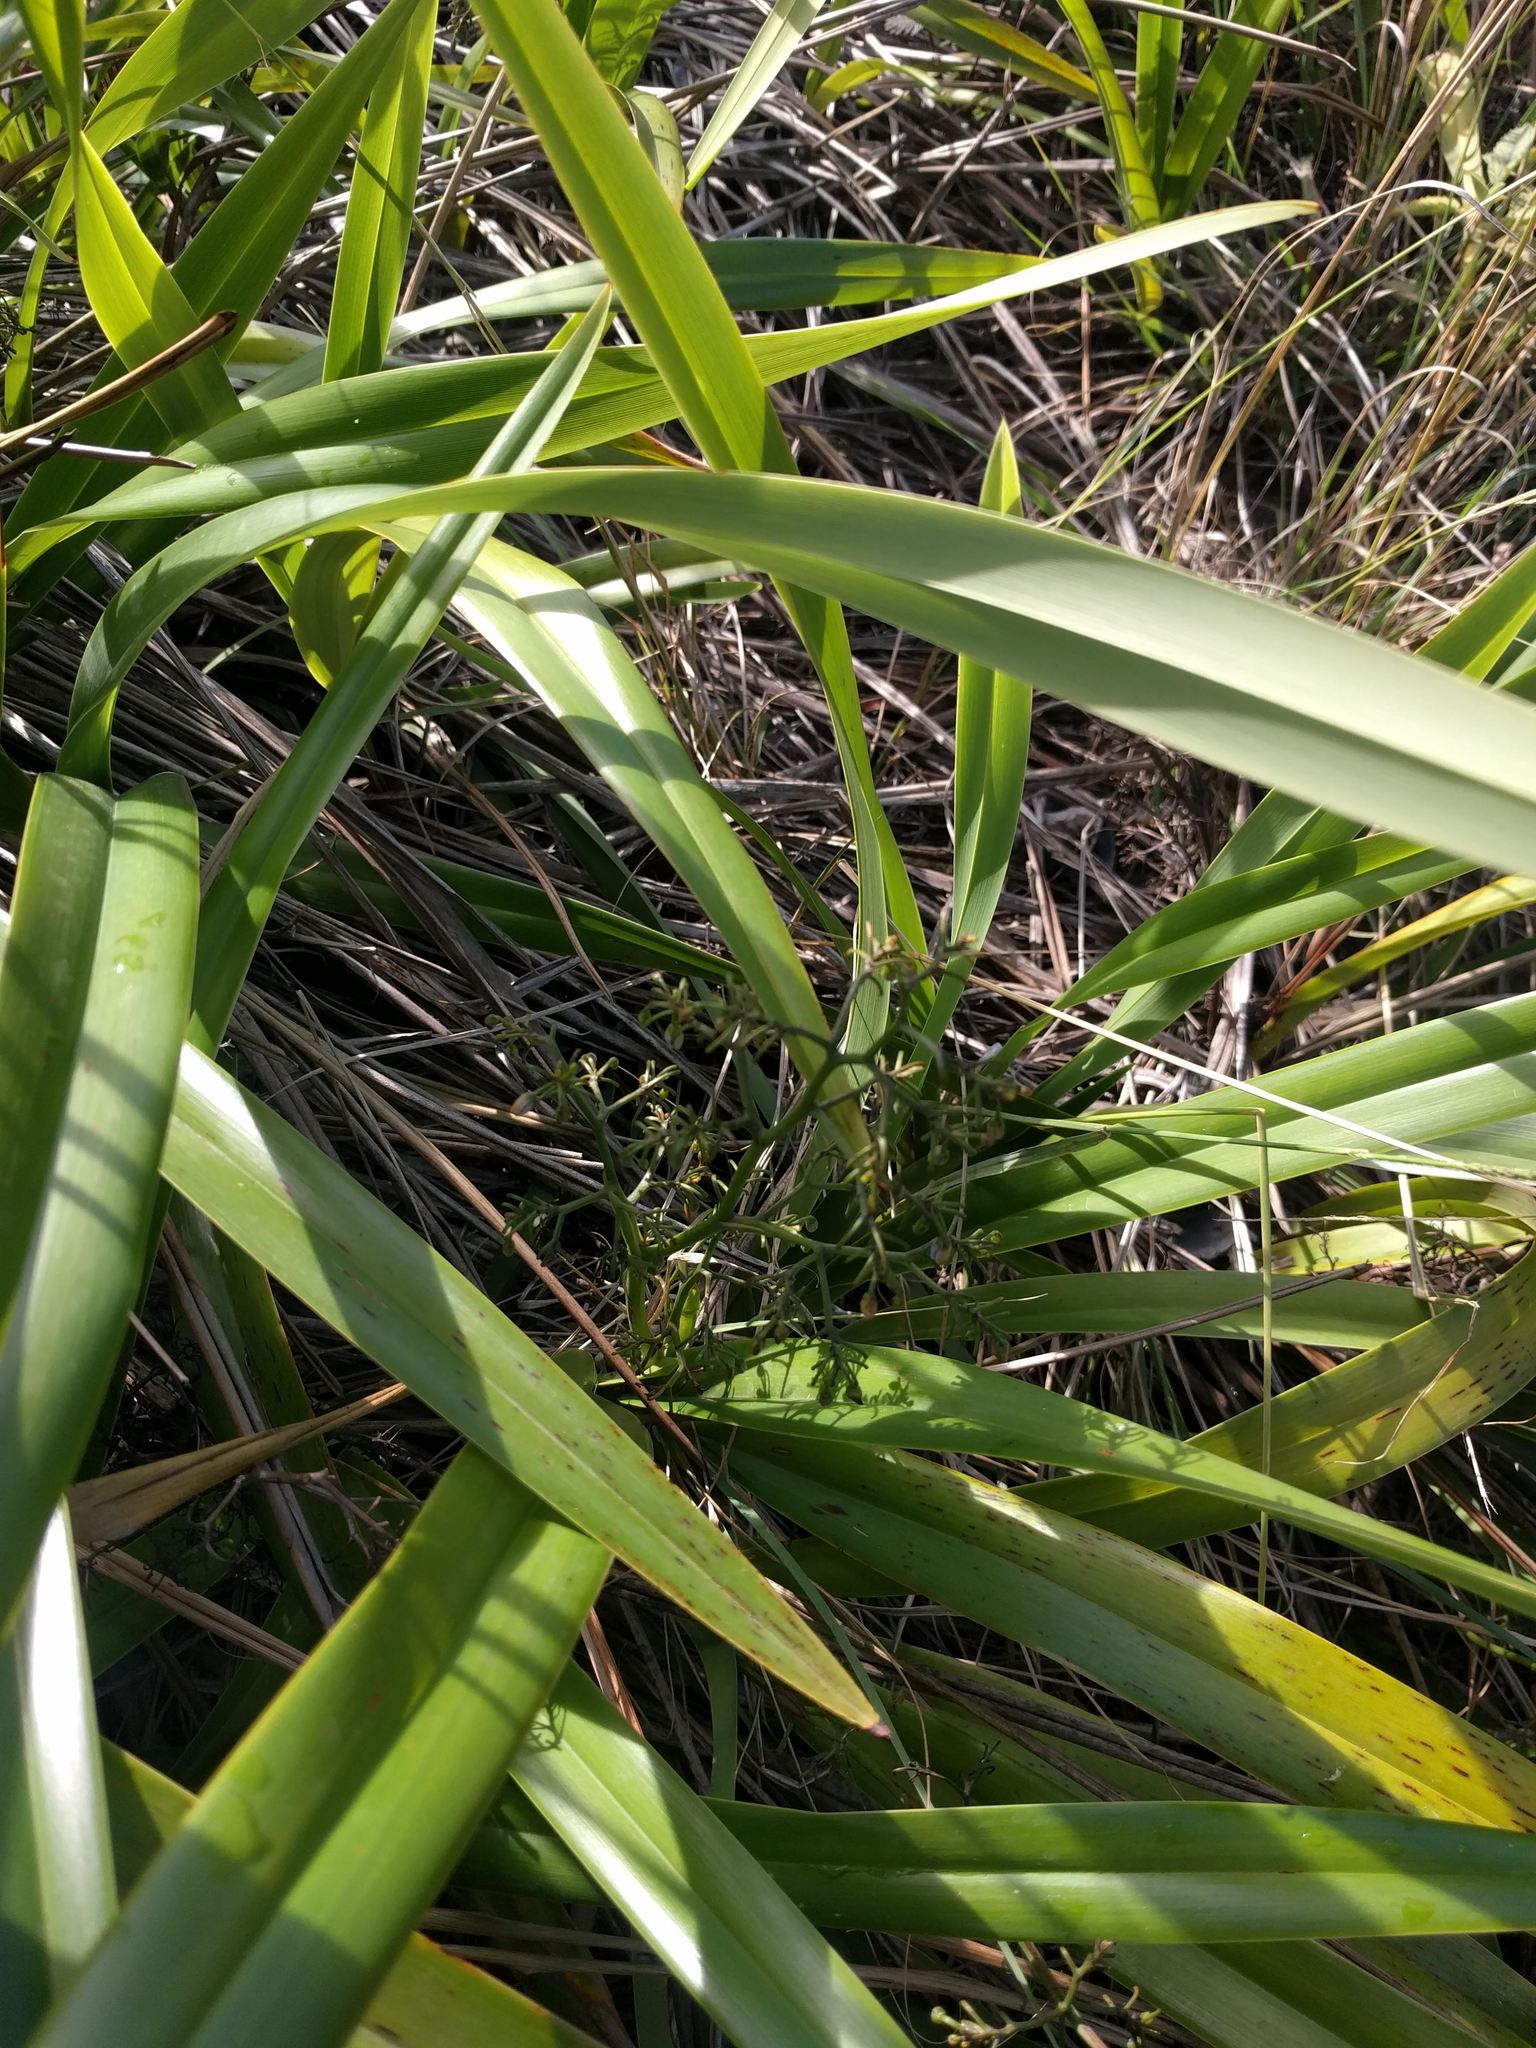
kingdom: Plantae
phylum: Tracheophyta
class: Liliopsida
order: Asparagales
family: Asphodelaceae
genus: Dianella
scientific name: Dianella sandwicensis
